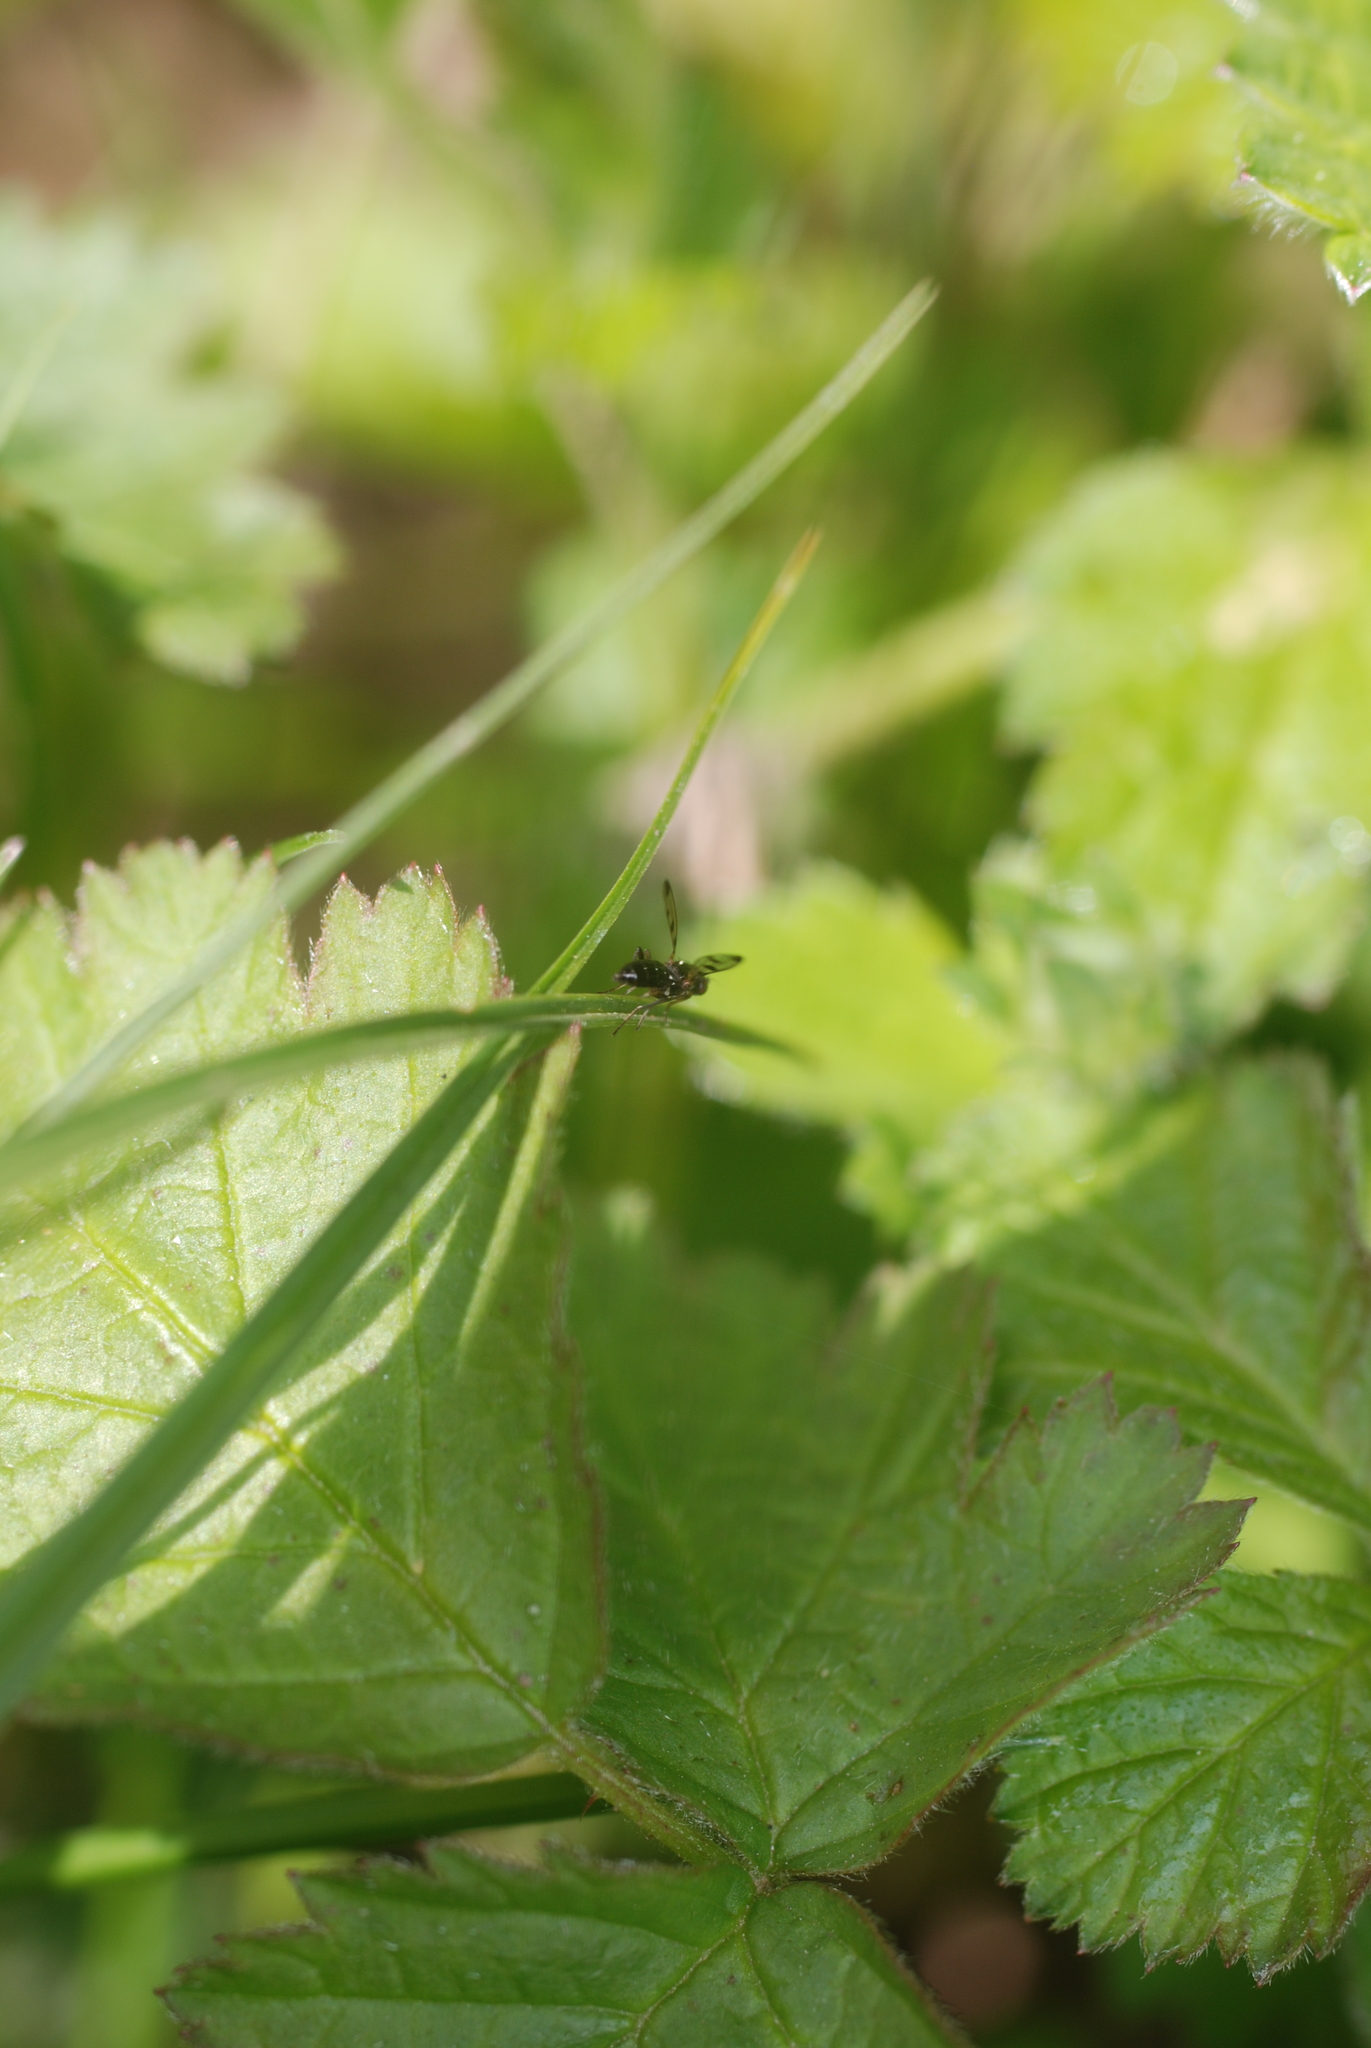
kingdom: Animalia
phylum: Arthropoda
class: Insecta
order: Diptera
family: Opomyzidae
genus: Geomyza
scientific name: Geomyza
